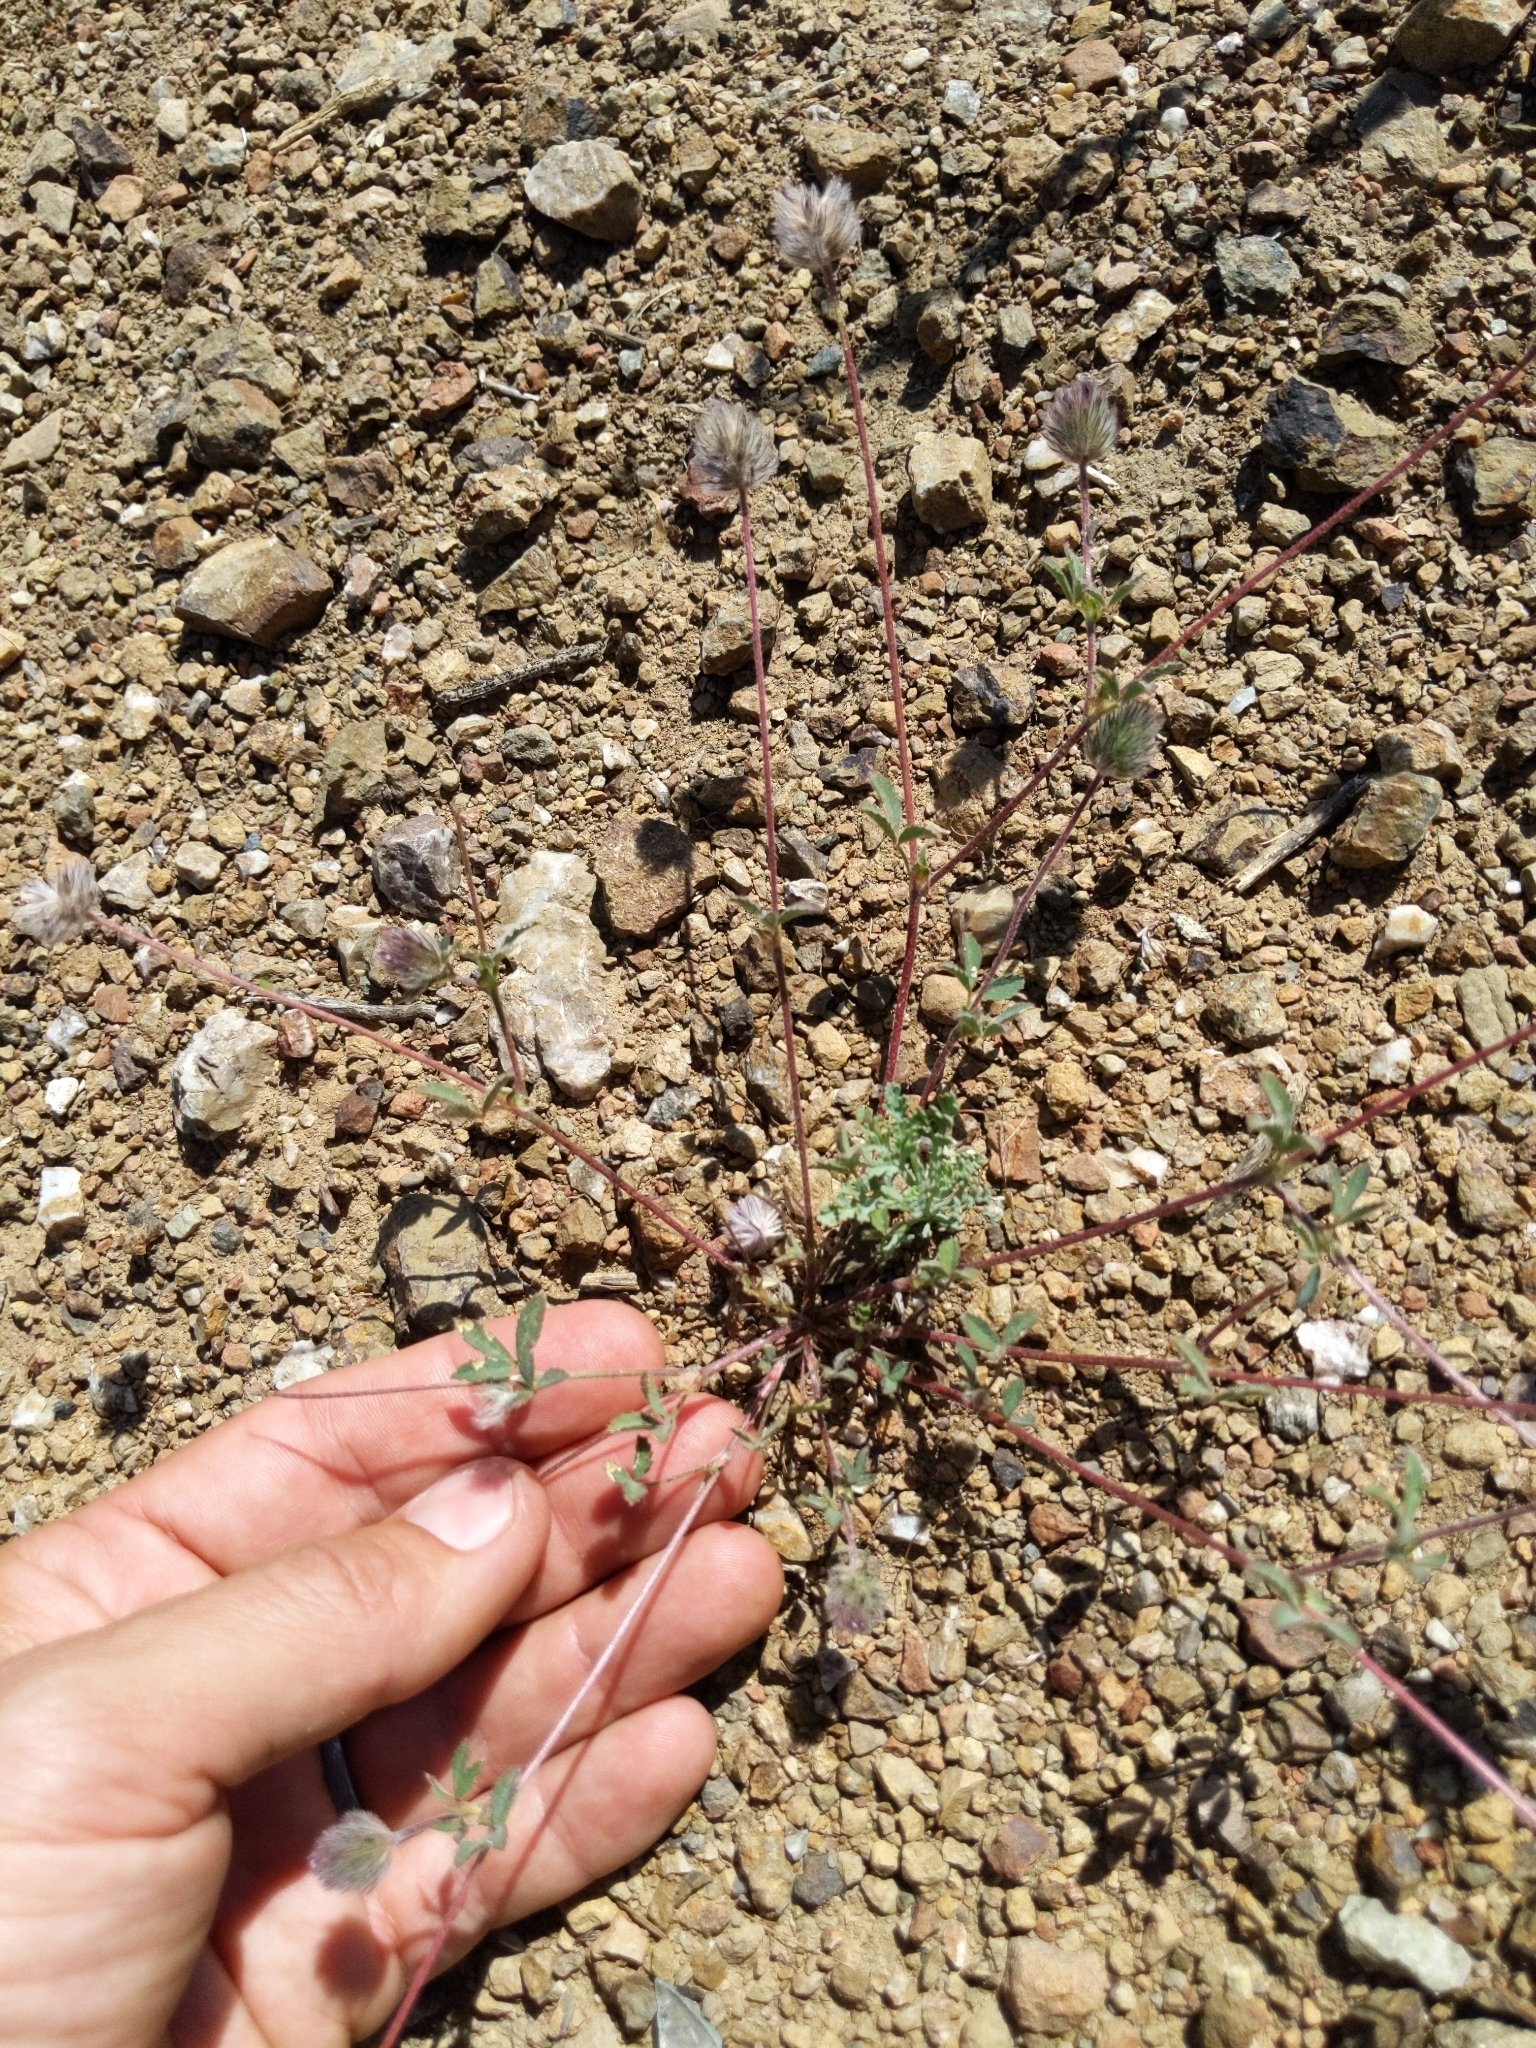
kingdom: Plantae
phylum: Tracheophyta
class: Magnoliopsida
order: Fabales
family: Fabaceae
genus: Trifolium
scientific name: Trifolium albopurpureum
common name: Rancheria clover
